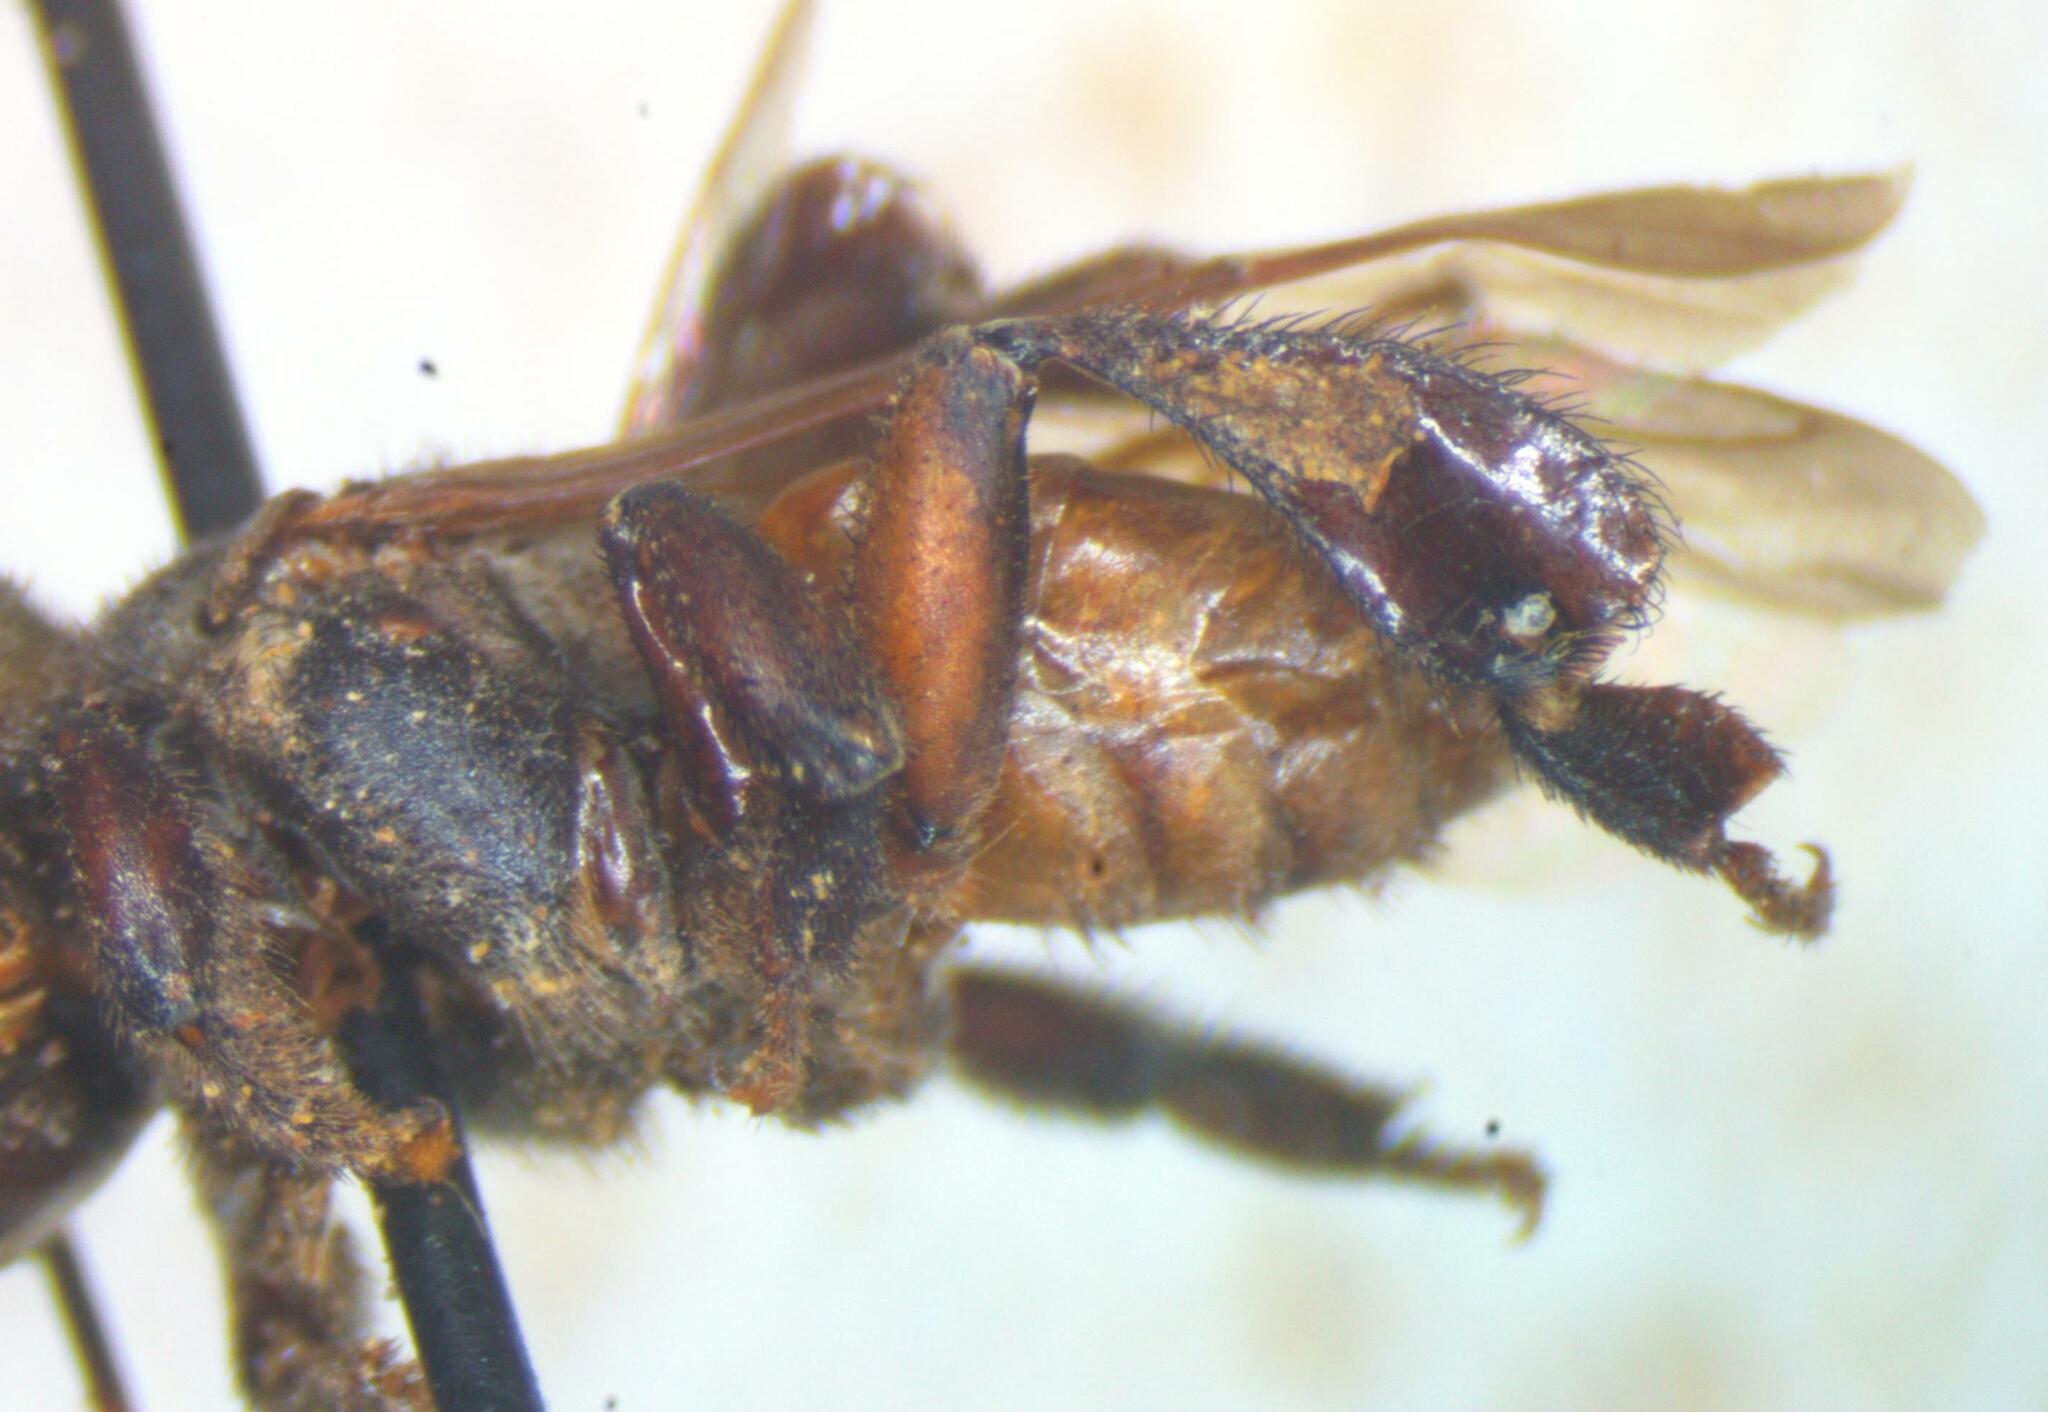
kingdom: Animalia
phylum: Arthropoda
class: Insecta
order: Hymenoptera
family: Apidae
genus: Cephalotrigona
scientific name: Cephalotrigona zexmeniae
